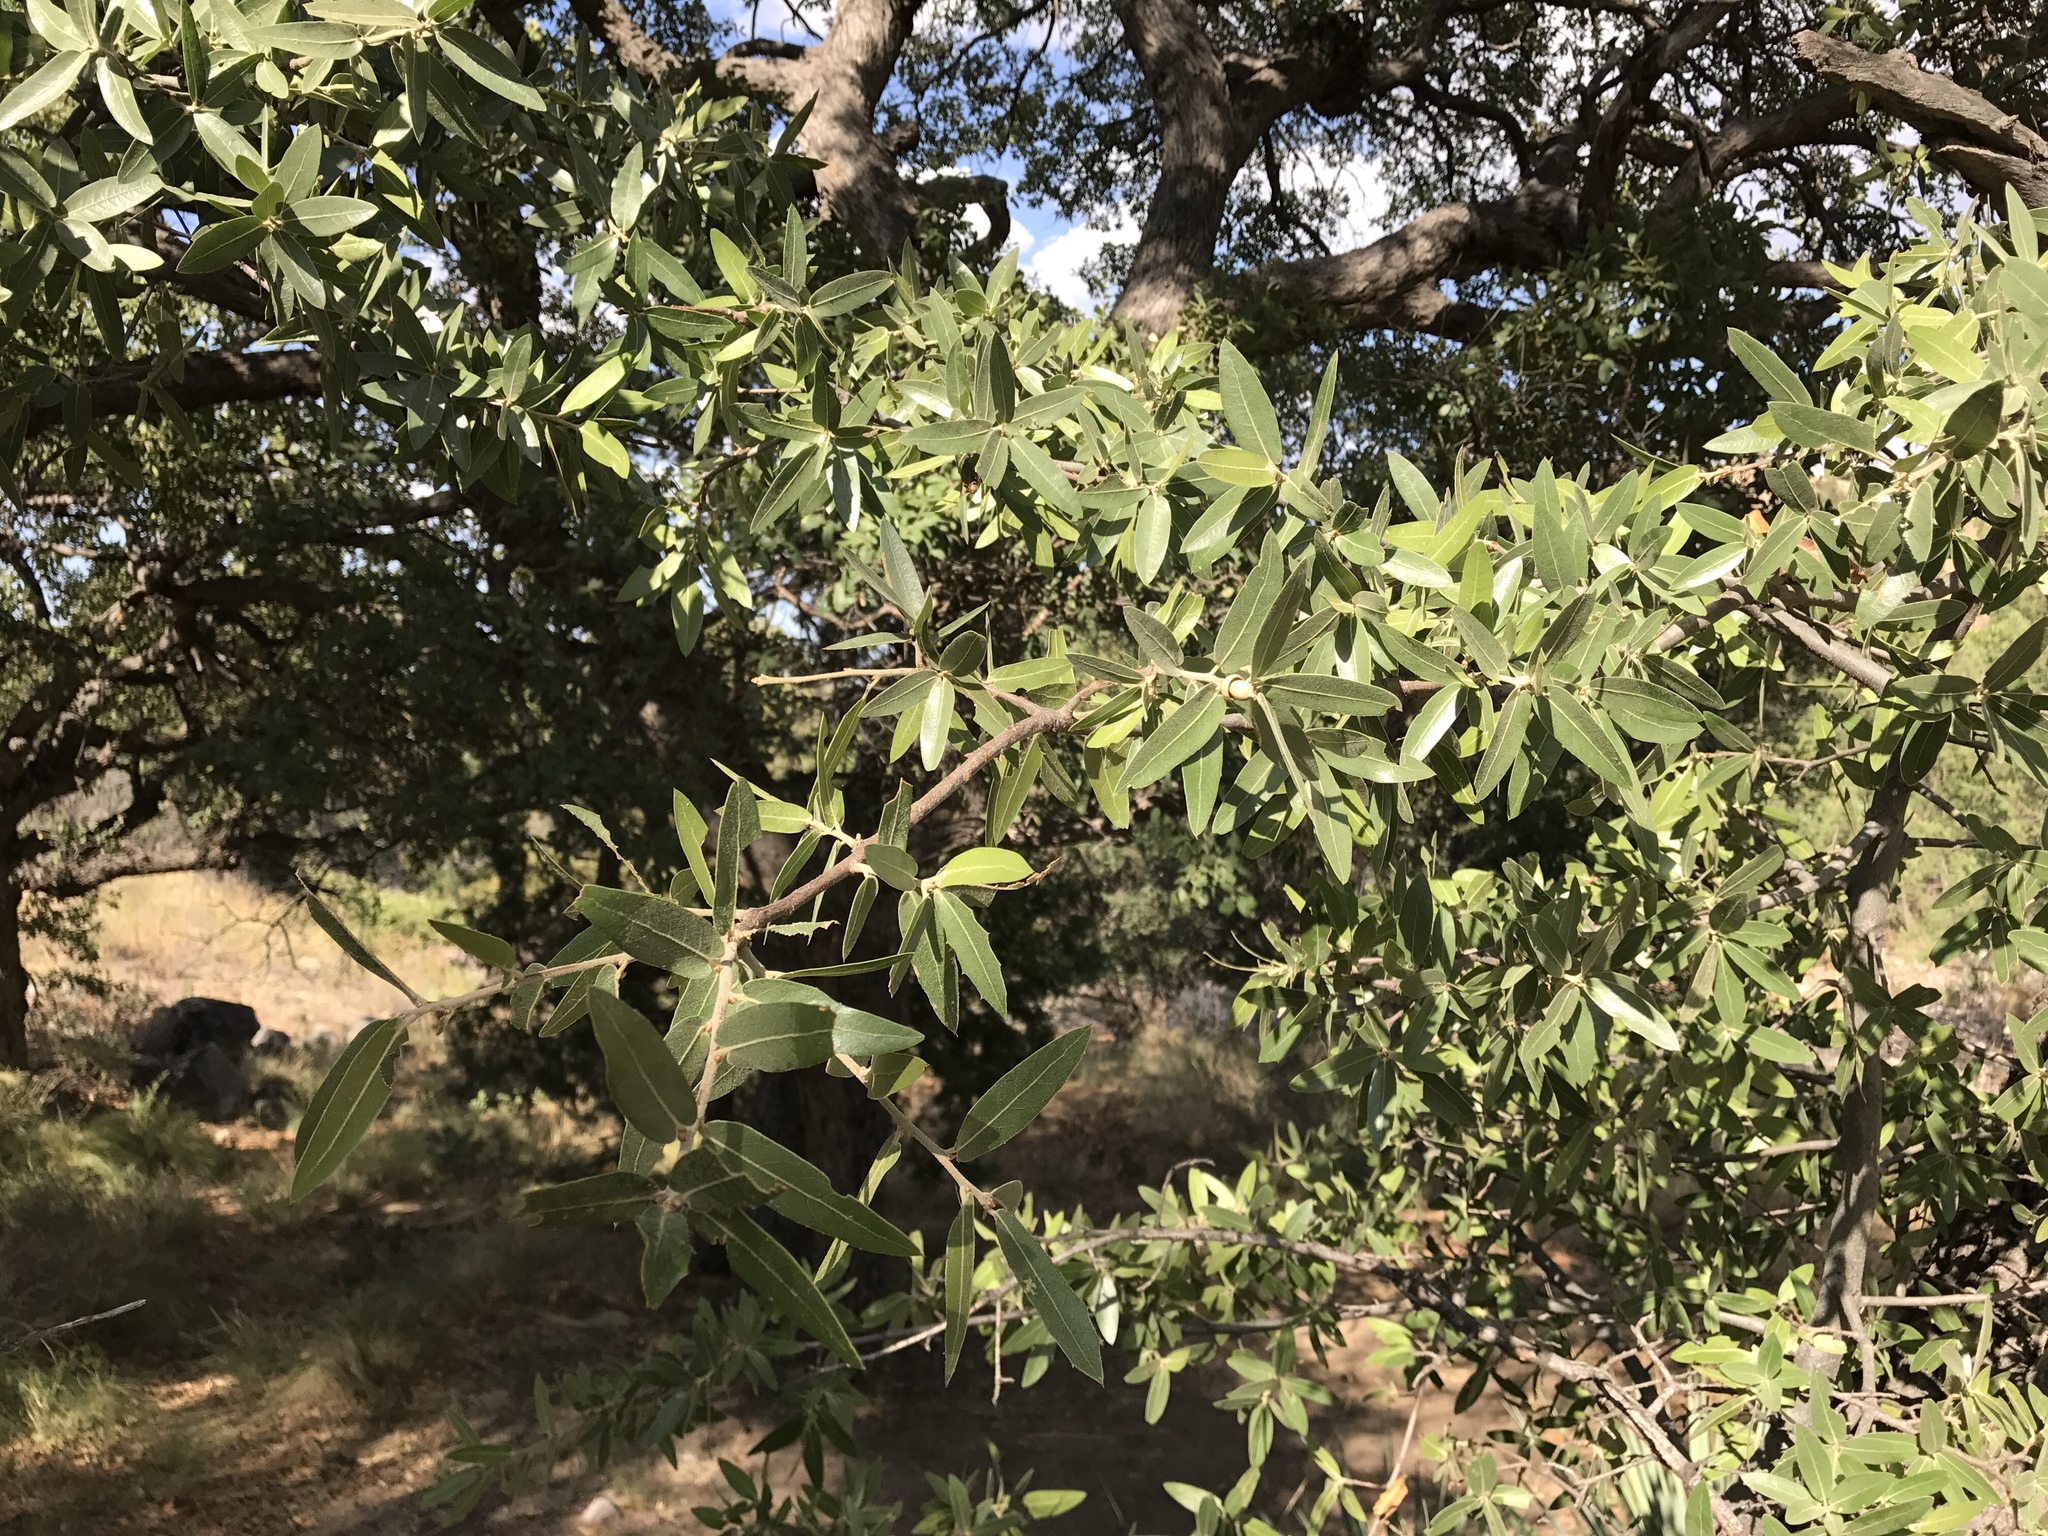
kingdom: Plantae
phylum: Tracheophyta
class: Magnoliopsida
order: Fagales
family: Fagaceae
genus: Quercus
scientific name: Quercus hypoleucoides
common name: Silverleaf oak
